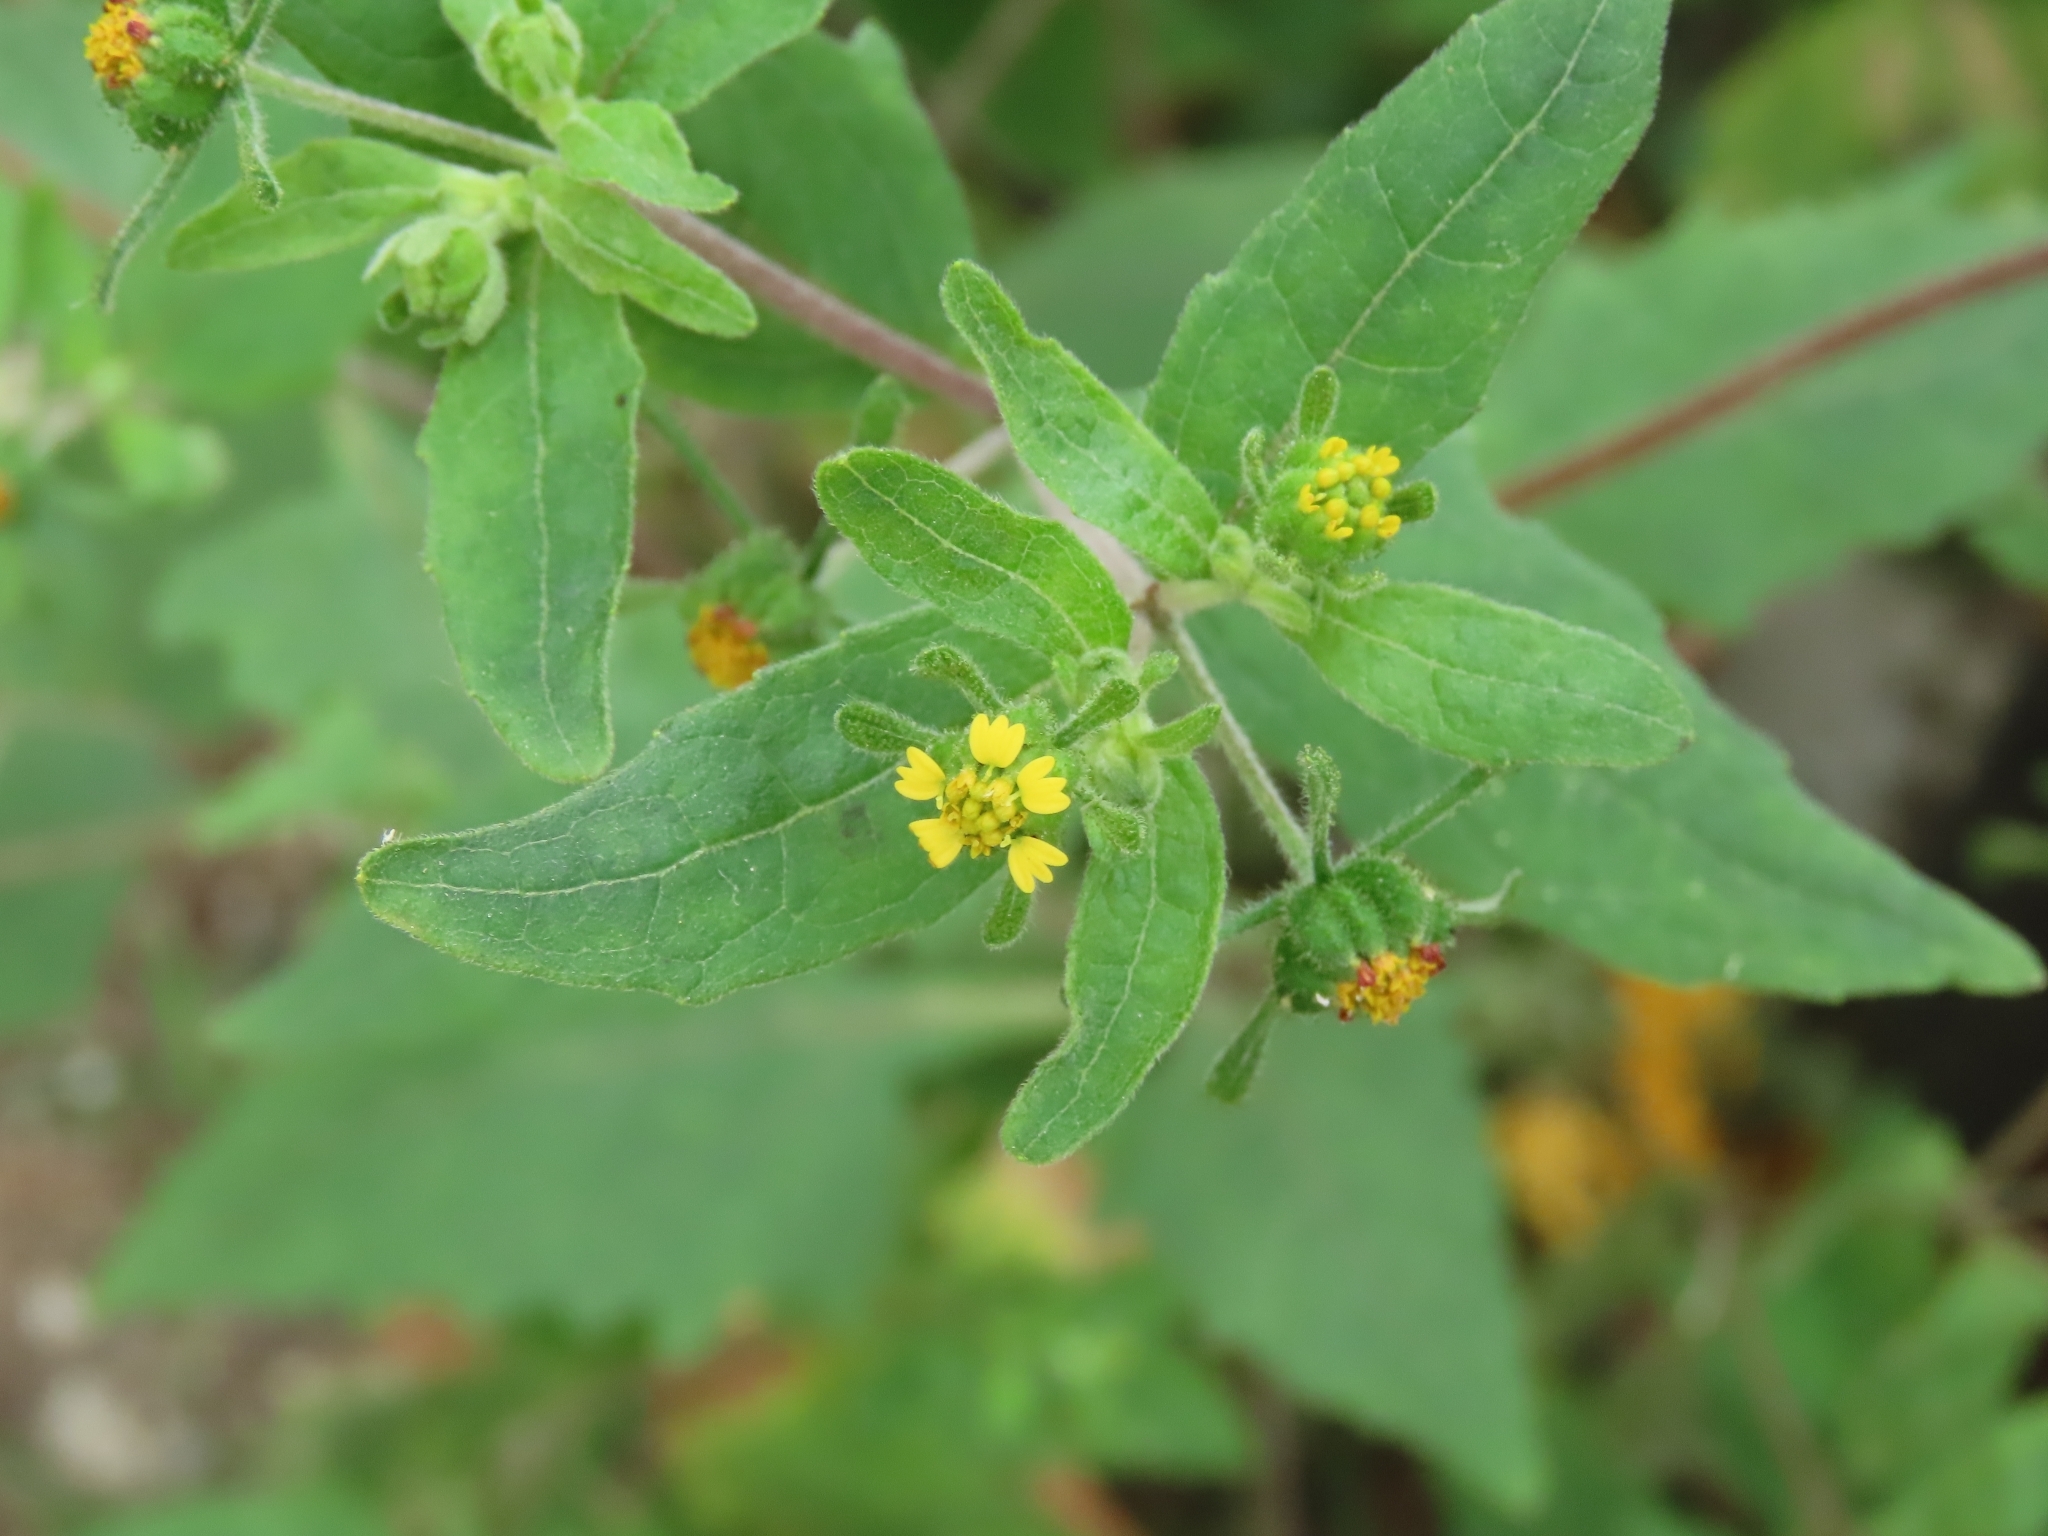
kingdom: Plantae
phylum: Tracheophyta
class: Magnoliopsida
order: Asterales
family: Asteraceae
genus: Sigesbeckia
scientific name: Sigesbeckia orientalis
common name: Eastern st paul's-wort
